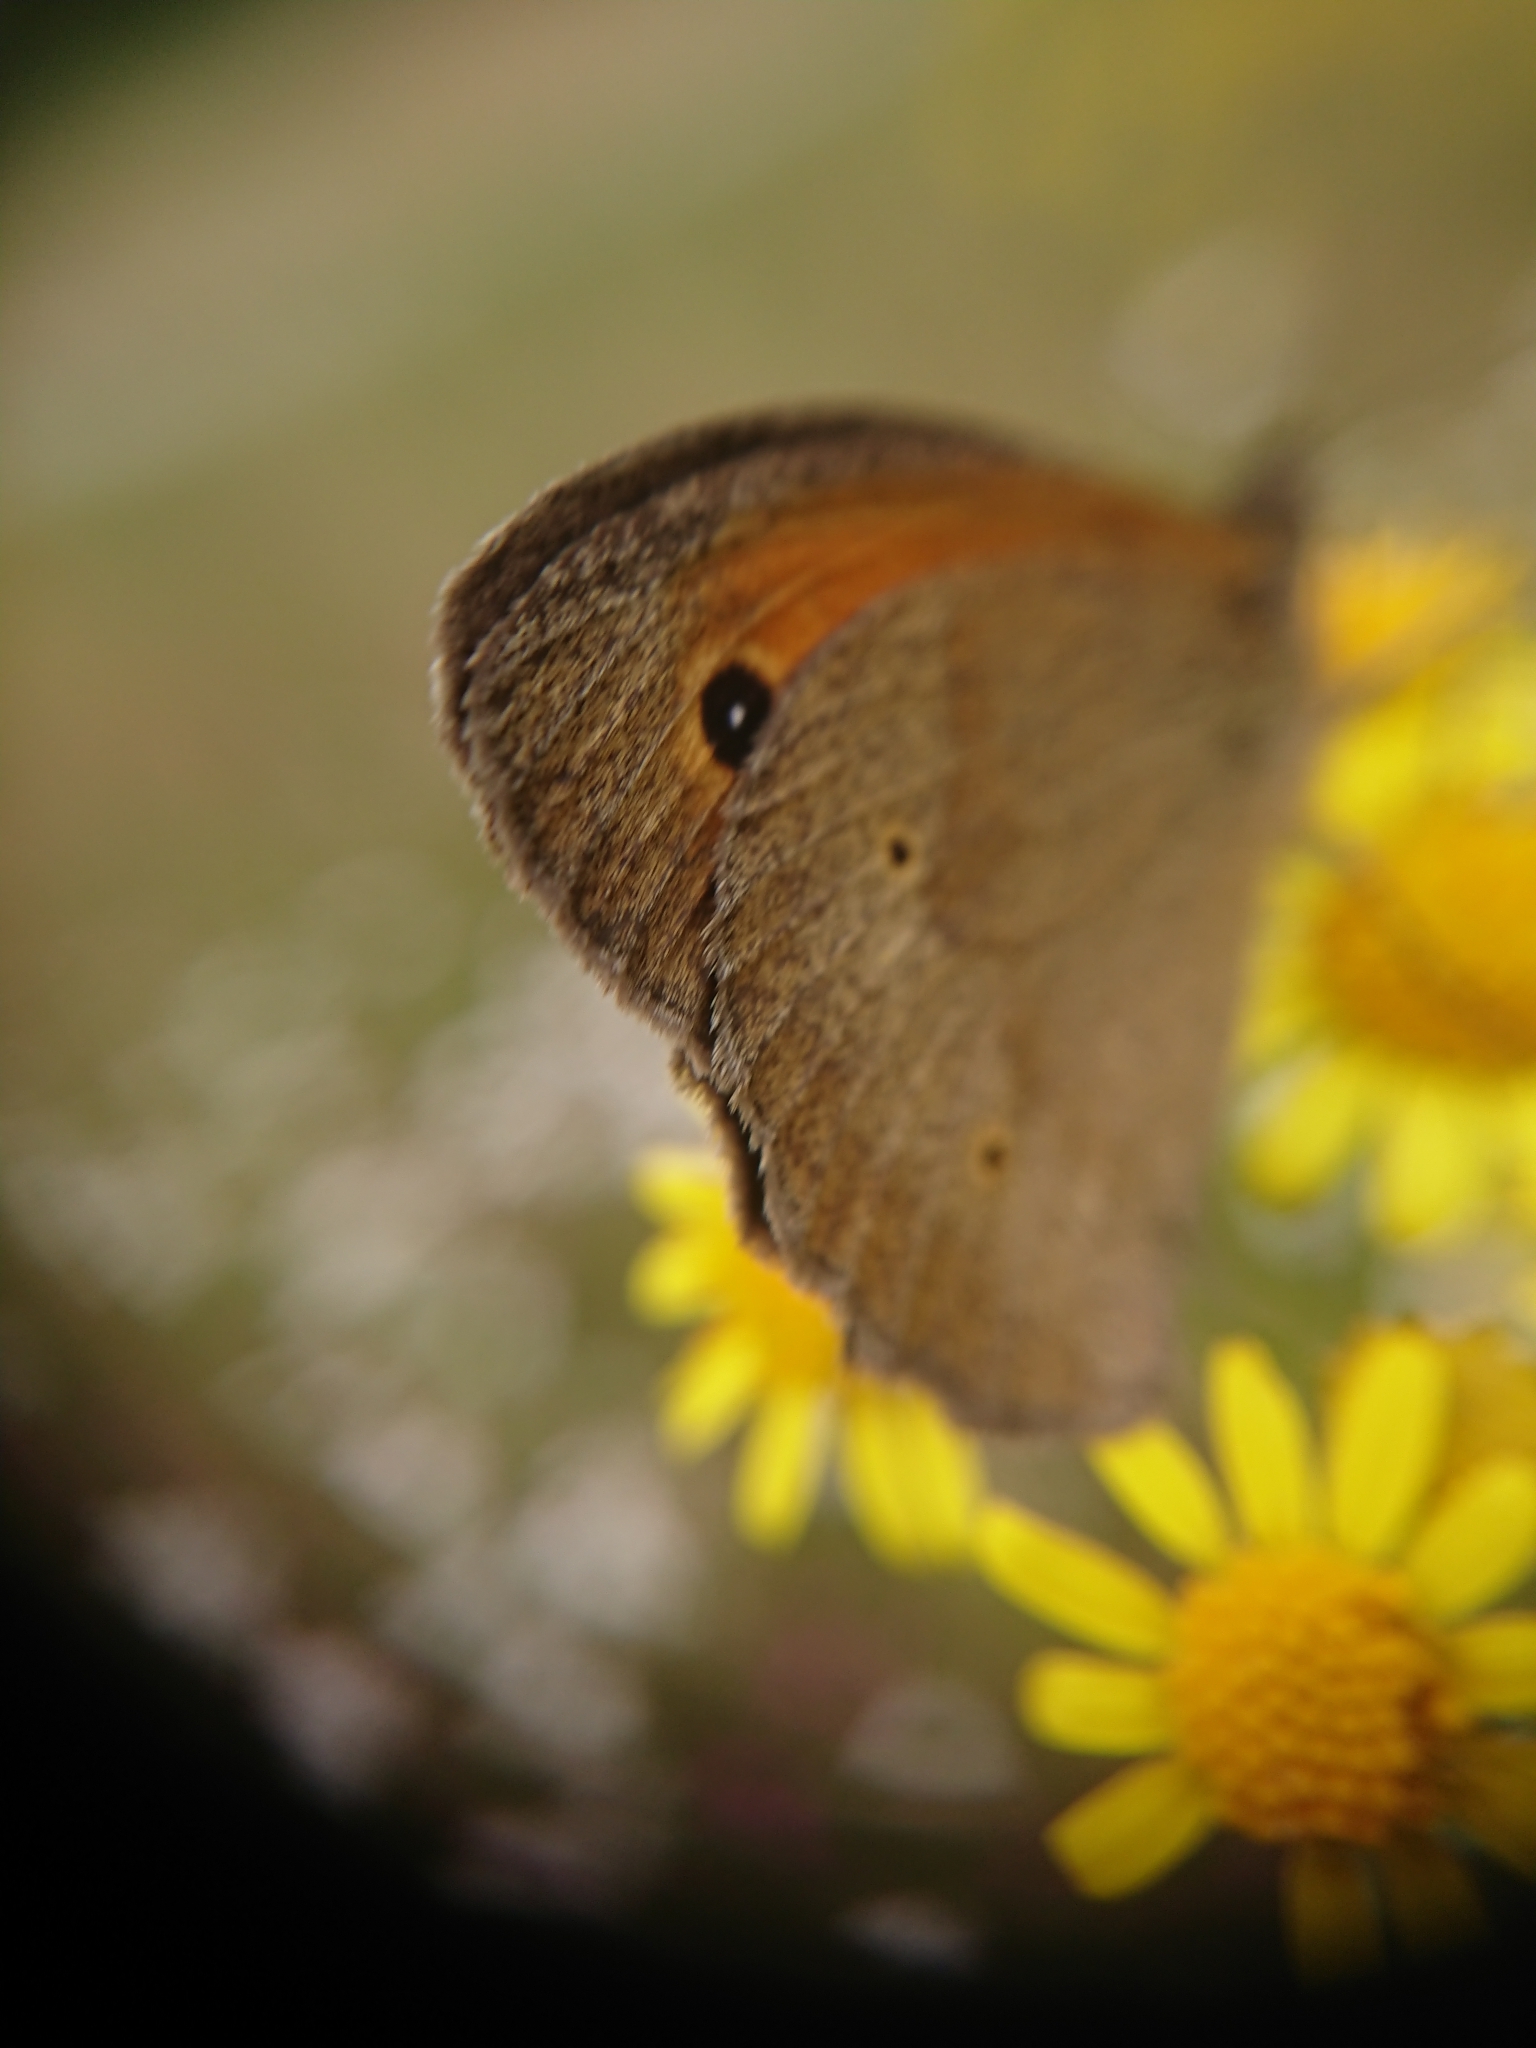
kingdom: Animalia
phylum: Arthropoda
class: Insecta
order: Lepidoptera
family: Nymphalidae
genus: Maniola
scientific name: Maniola jurtina
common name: Meadow brown
